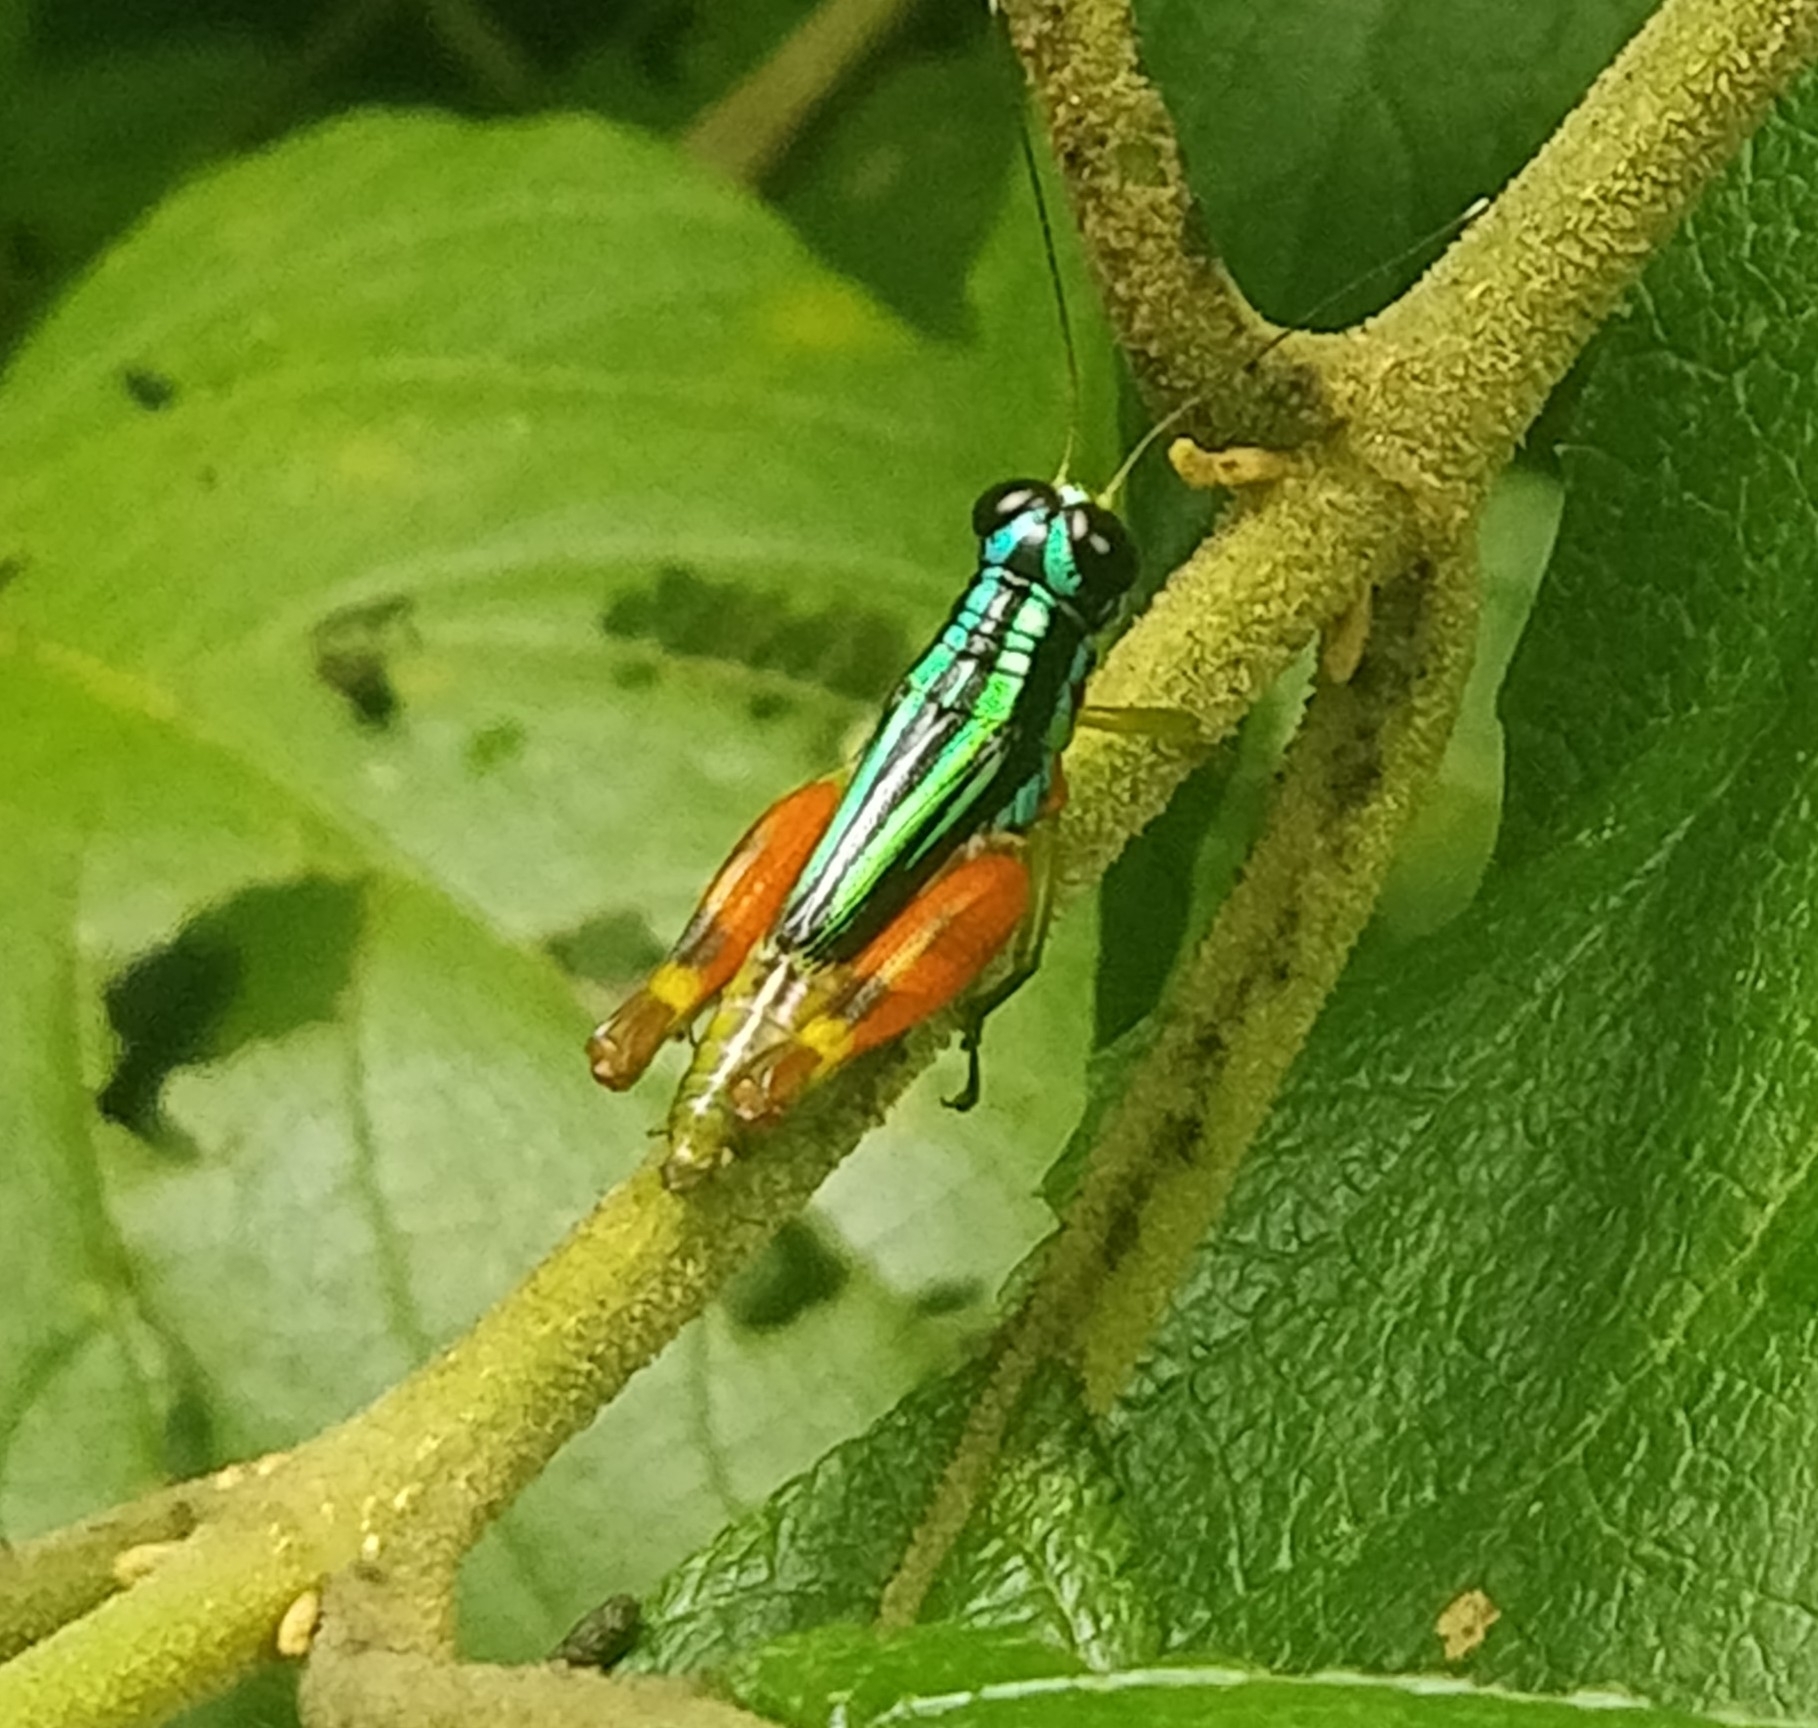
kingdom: Animalia
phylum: Arthropoda
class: Insecta
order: Orthoptera
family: Romaleidae
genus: Taeniophora
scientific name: Taeniophora femorata
